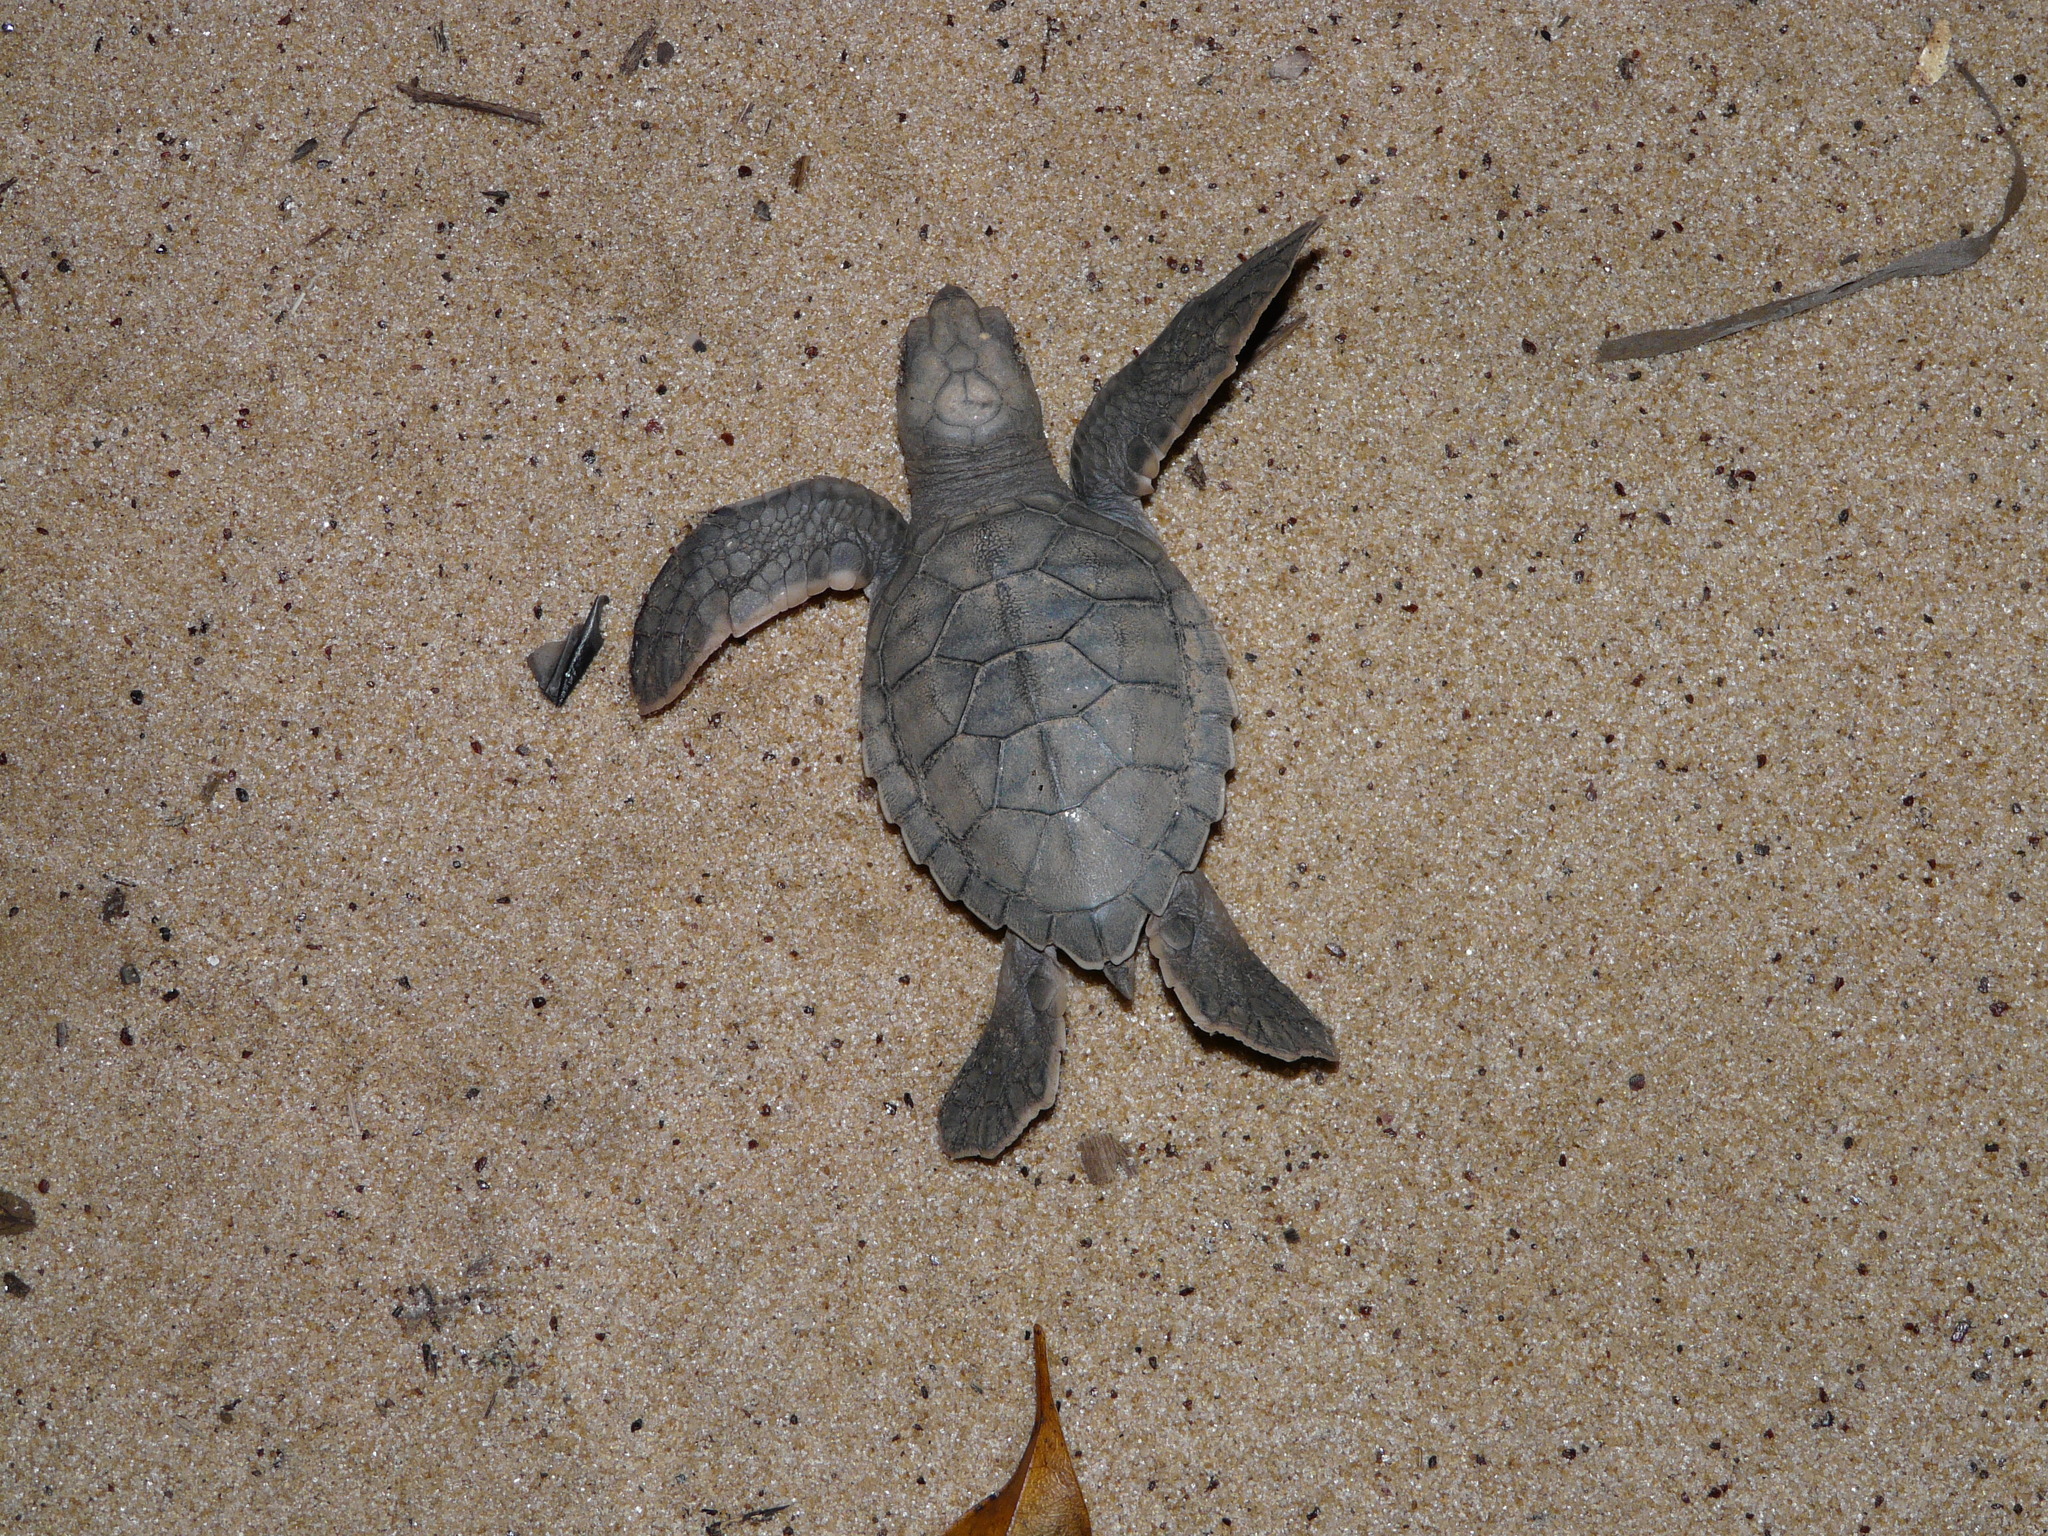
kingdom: Animalia
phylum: Chordata
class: Testudines
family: Cheloniidae
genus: Chelonia
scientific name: Chelonia mydas
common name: Green turtle
